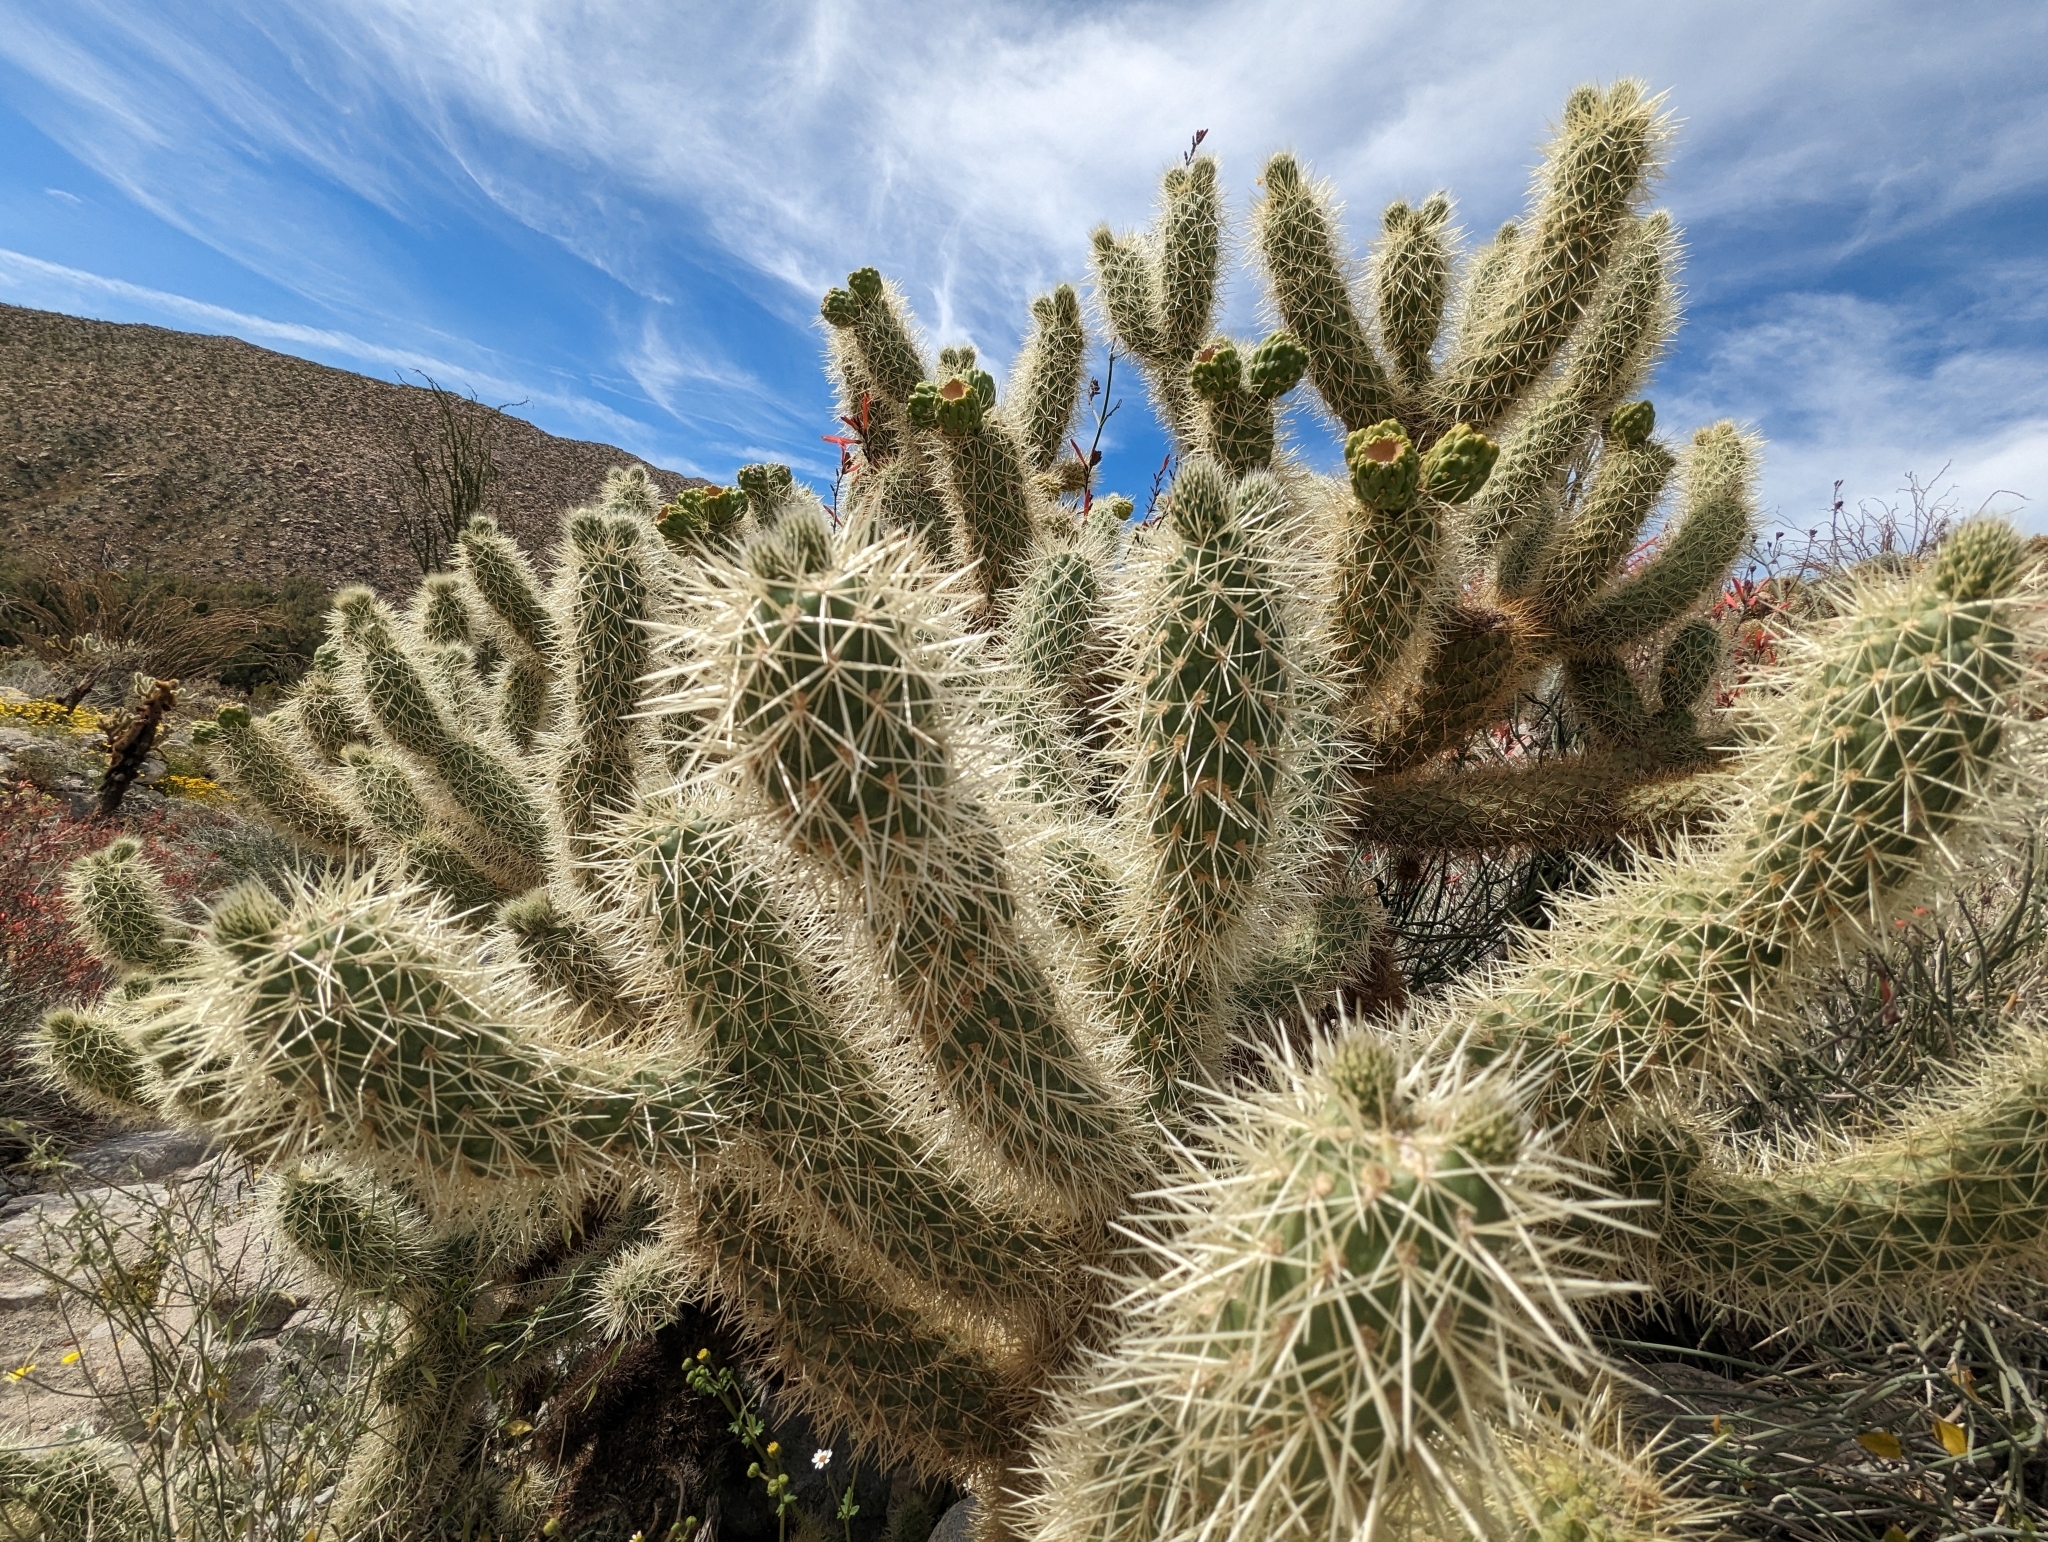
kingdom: Plantae
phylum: Tracheophyta
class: Magnoliopsida
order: Caryophyllales
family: Cactaceae
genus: Cylindropuntia
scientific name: Cylindropuntia fosbergii
